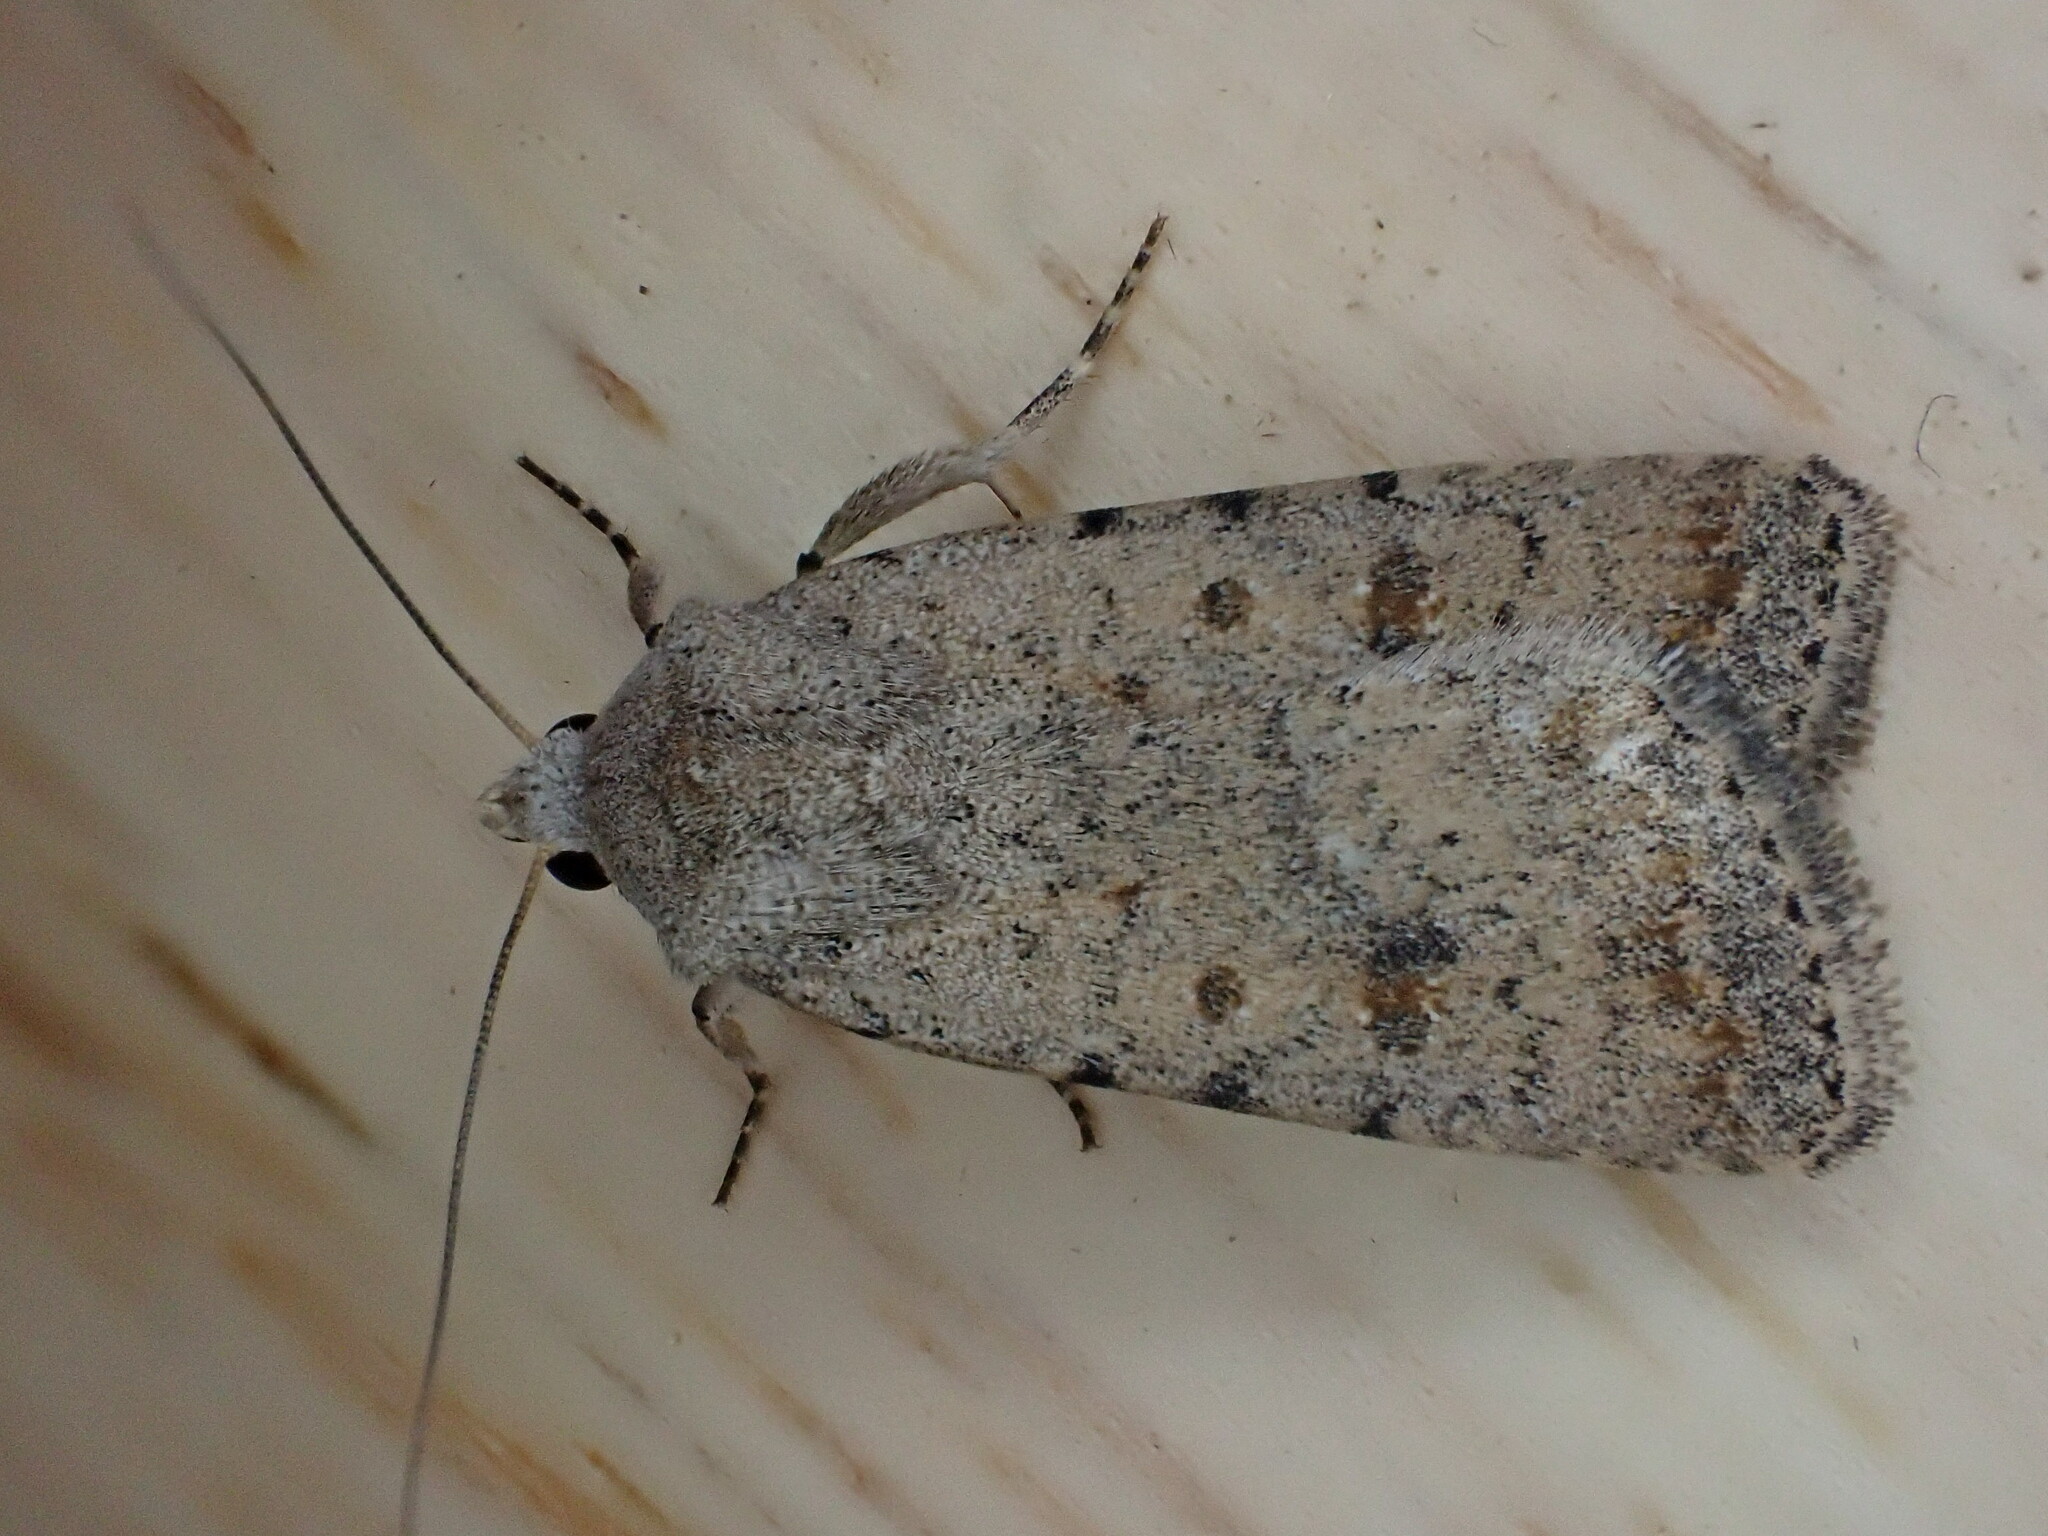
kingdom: Animalia
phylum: Arthropoda
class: Insecta
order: Lepidoptera
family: Noctuidae
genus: Caradrina
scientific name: Caradrina clavipalpis
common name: Pale mottled willow
